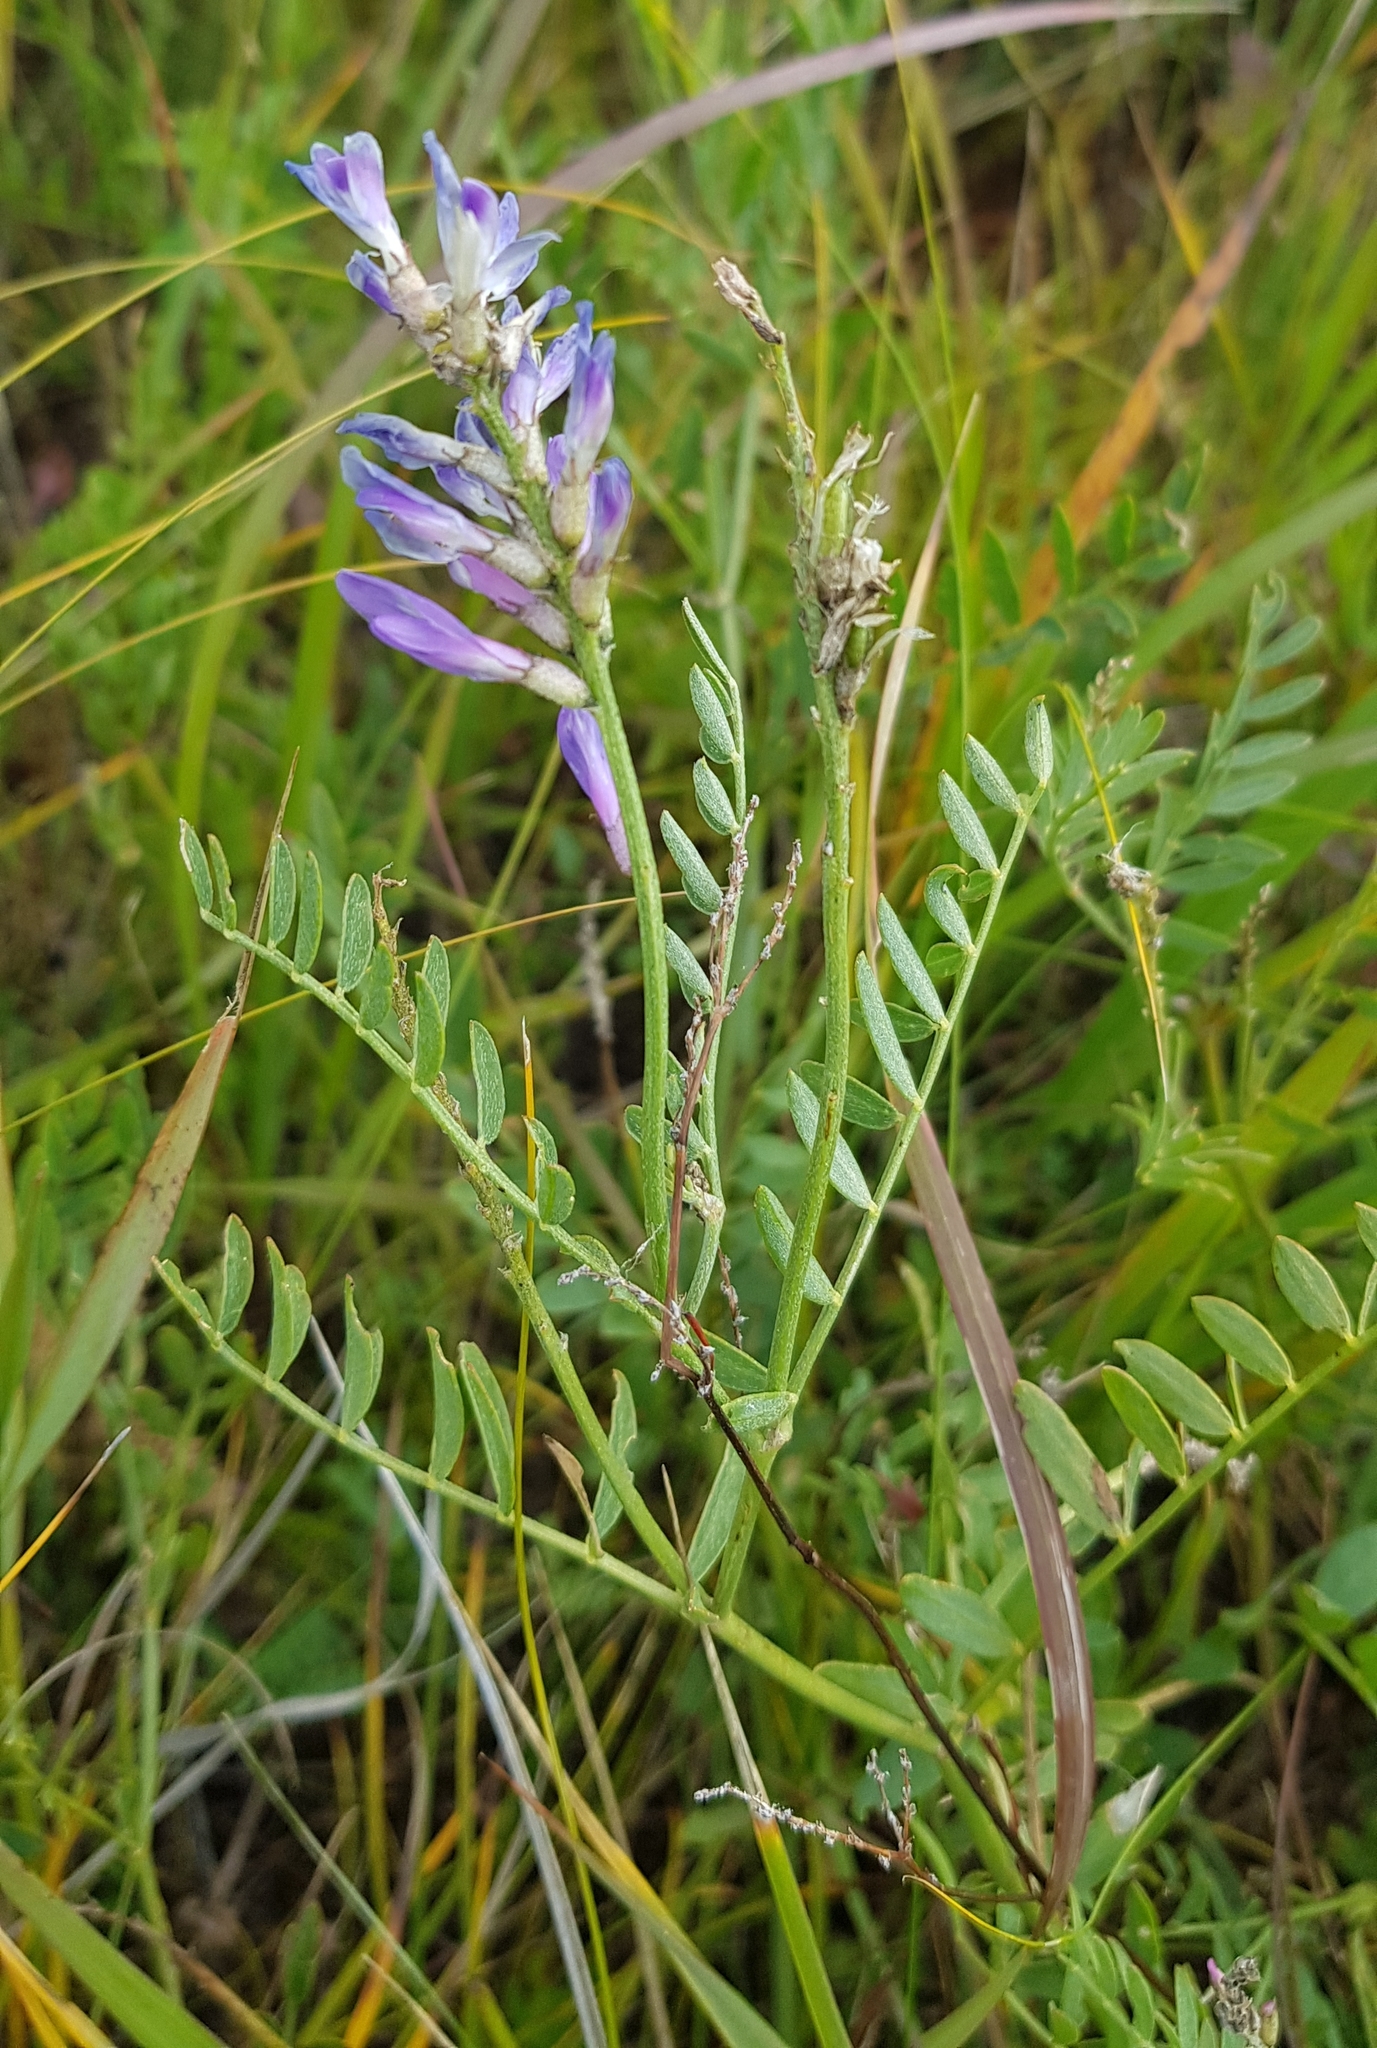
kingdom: Plantae
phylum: Tracheophyta
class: Magnoliopsida
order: Fabales
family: Fabaceae
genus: Astragalus
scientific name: Astragalus onobrychis
